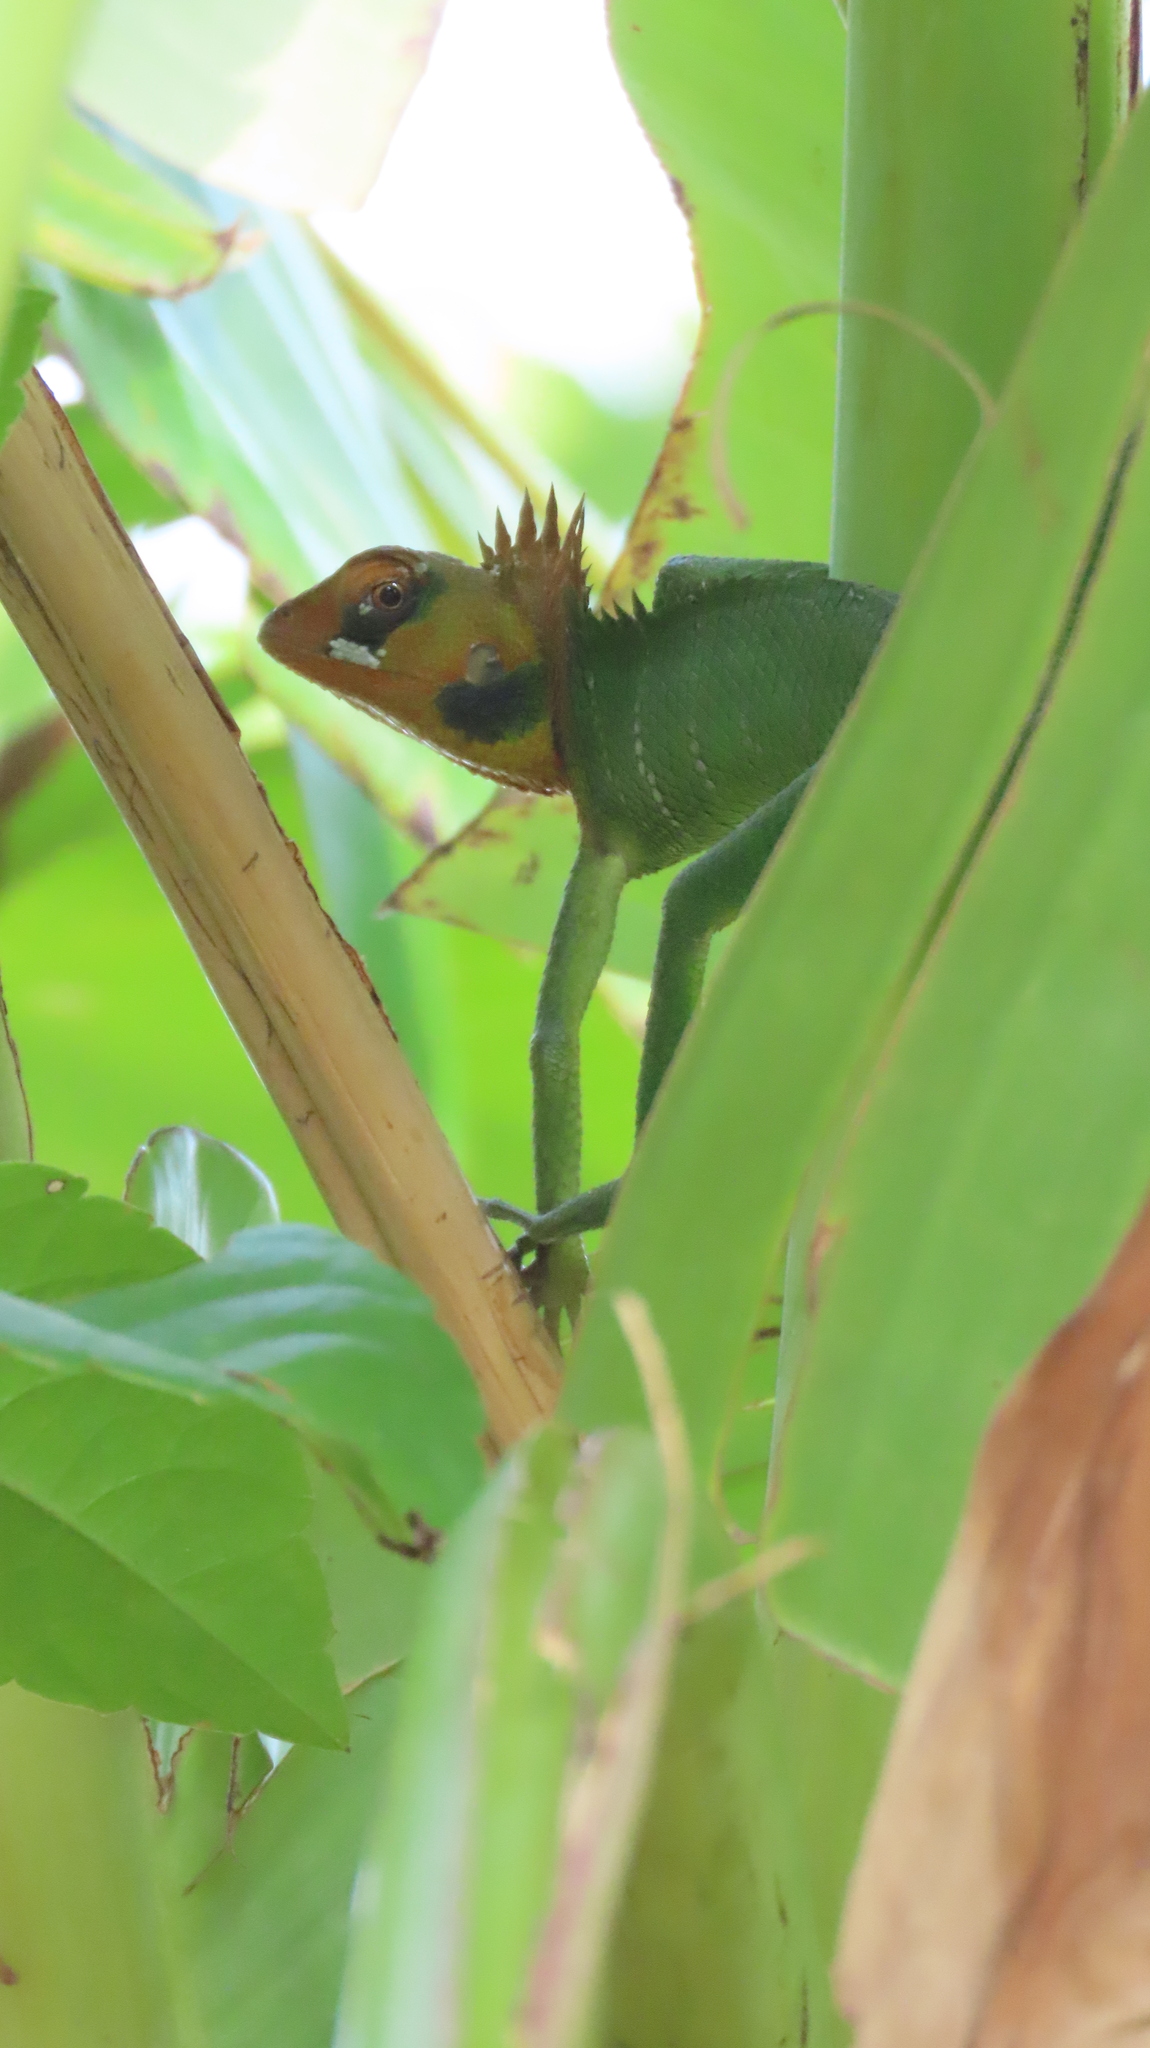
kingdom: Animalia
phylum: Chordata
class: Squamata
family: Agamidae
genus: Calotes
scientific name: Calotes calotes
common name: Common green forest lizard
